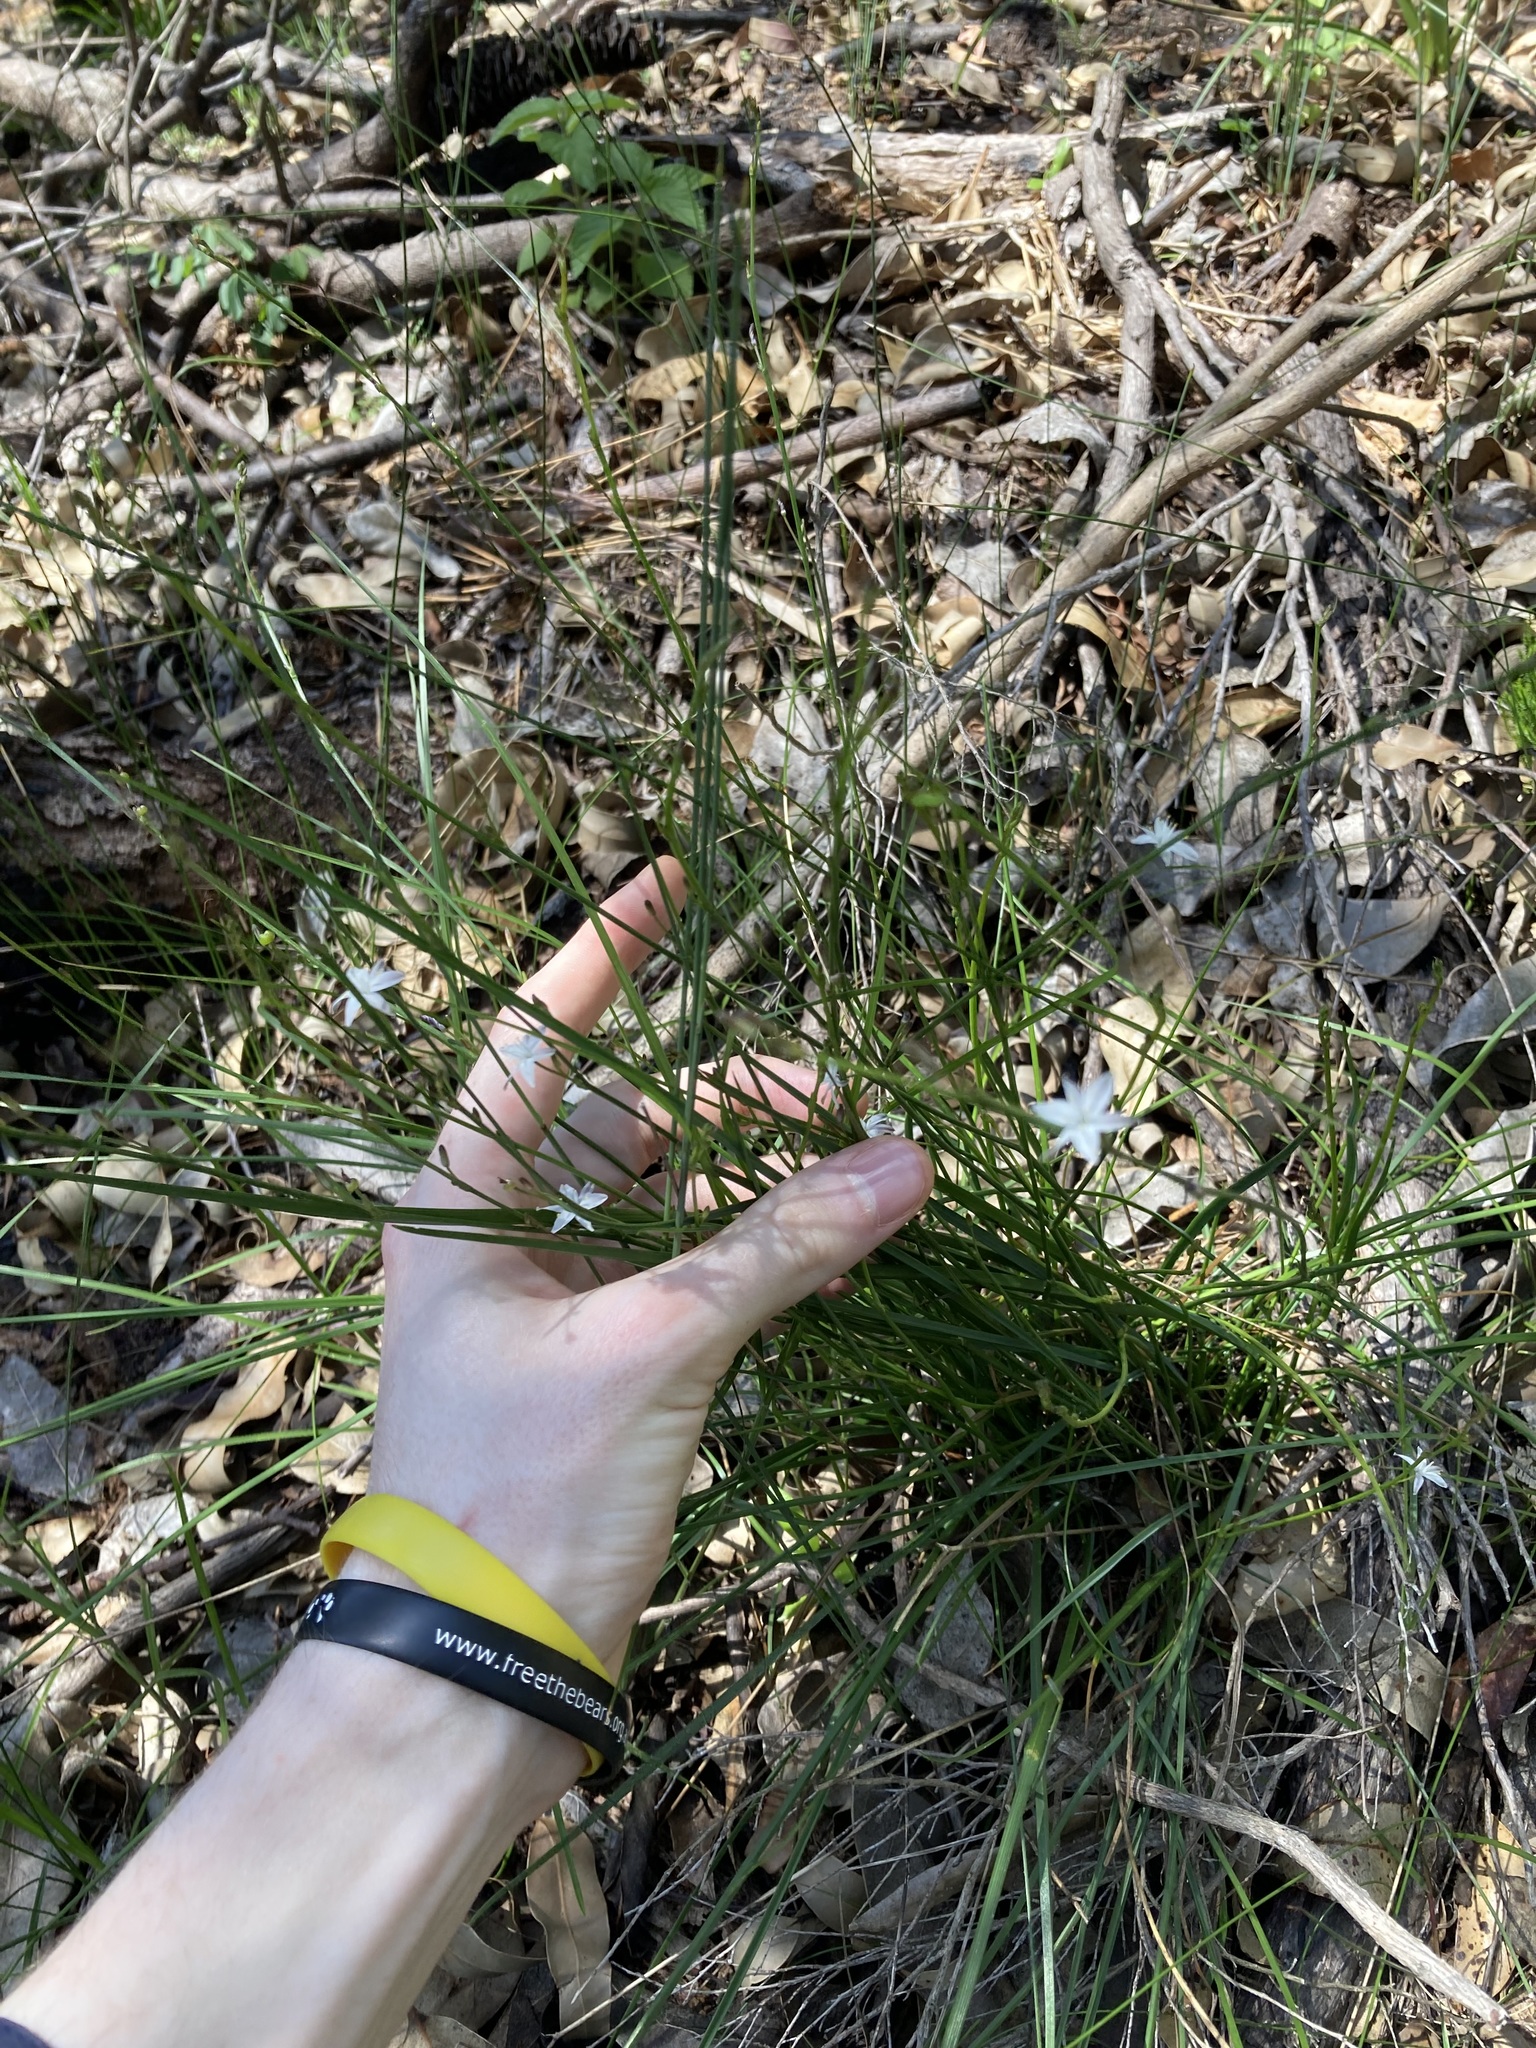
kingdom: Plantae
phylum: Tracheophyta
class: Liliopsida
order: Asparagales
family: Asphodelaceae
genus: Caesia
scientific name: Caesia parviflora
